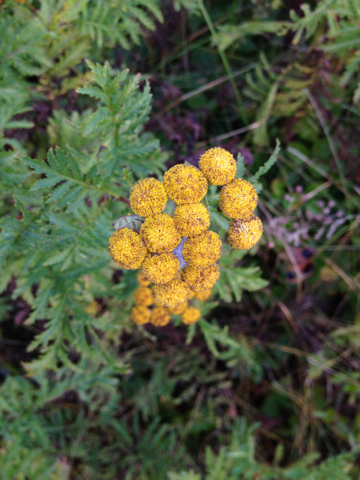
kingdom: Plantae
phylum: Tracheophyta
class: Magnoliopsida
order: Asterales
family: Asteraceae
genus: Tanacetum
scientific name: Tanacetum vulgare
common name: Common tansy
